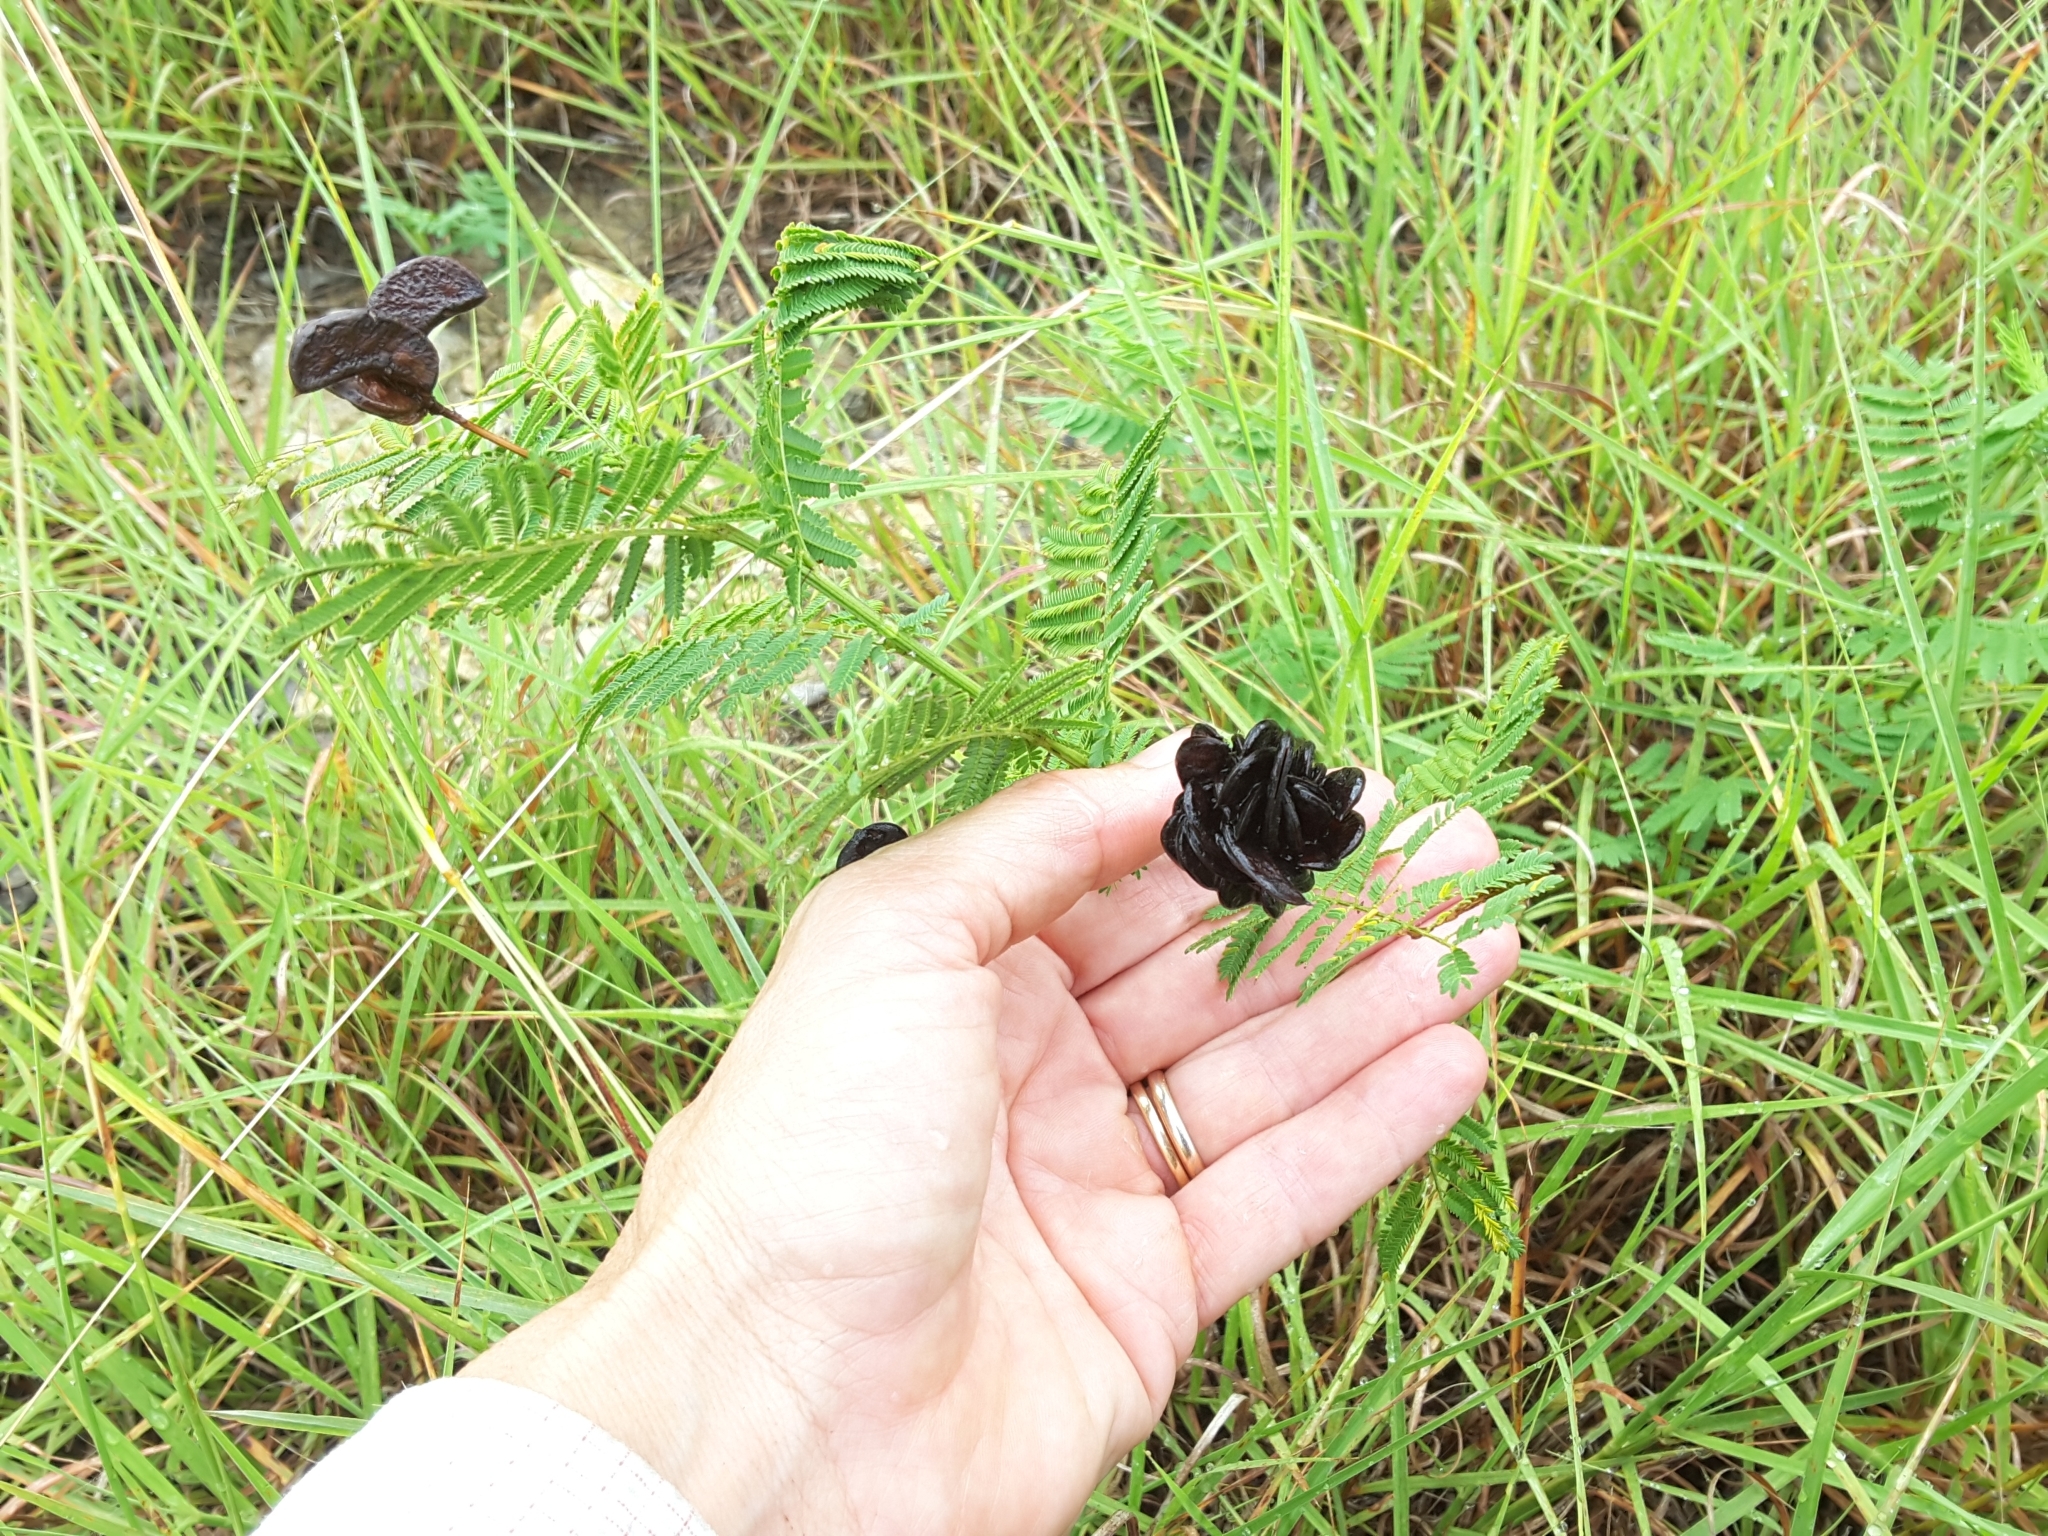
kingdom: Plantae
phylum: Tracheophyta
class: Magnoliopsida
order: Fabales
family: Fabaceae
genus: Desmanthus
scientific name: Desmanthus illinoensis
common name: Illinois bundle-flower
